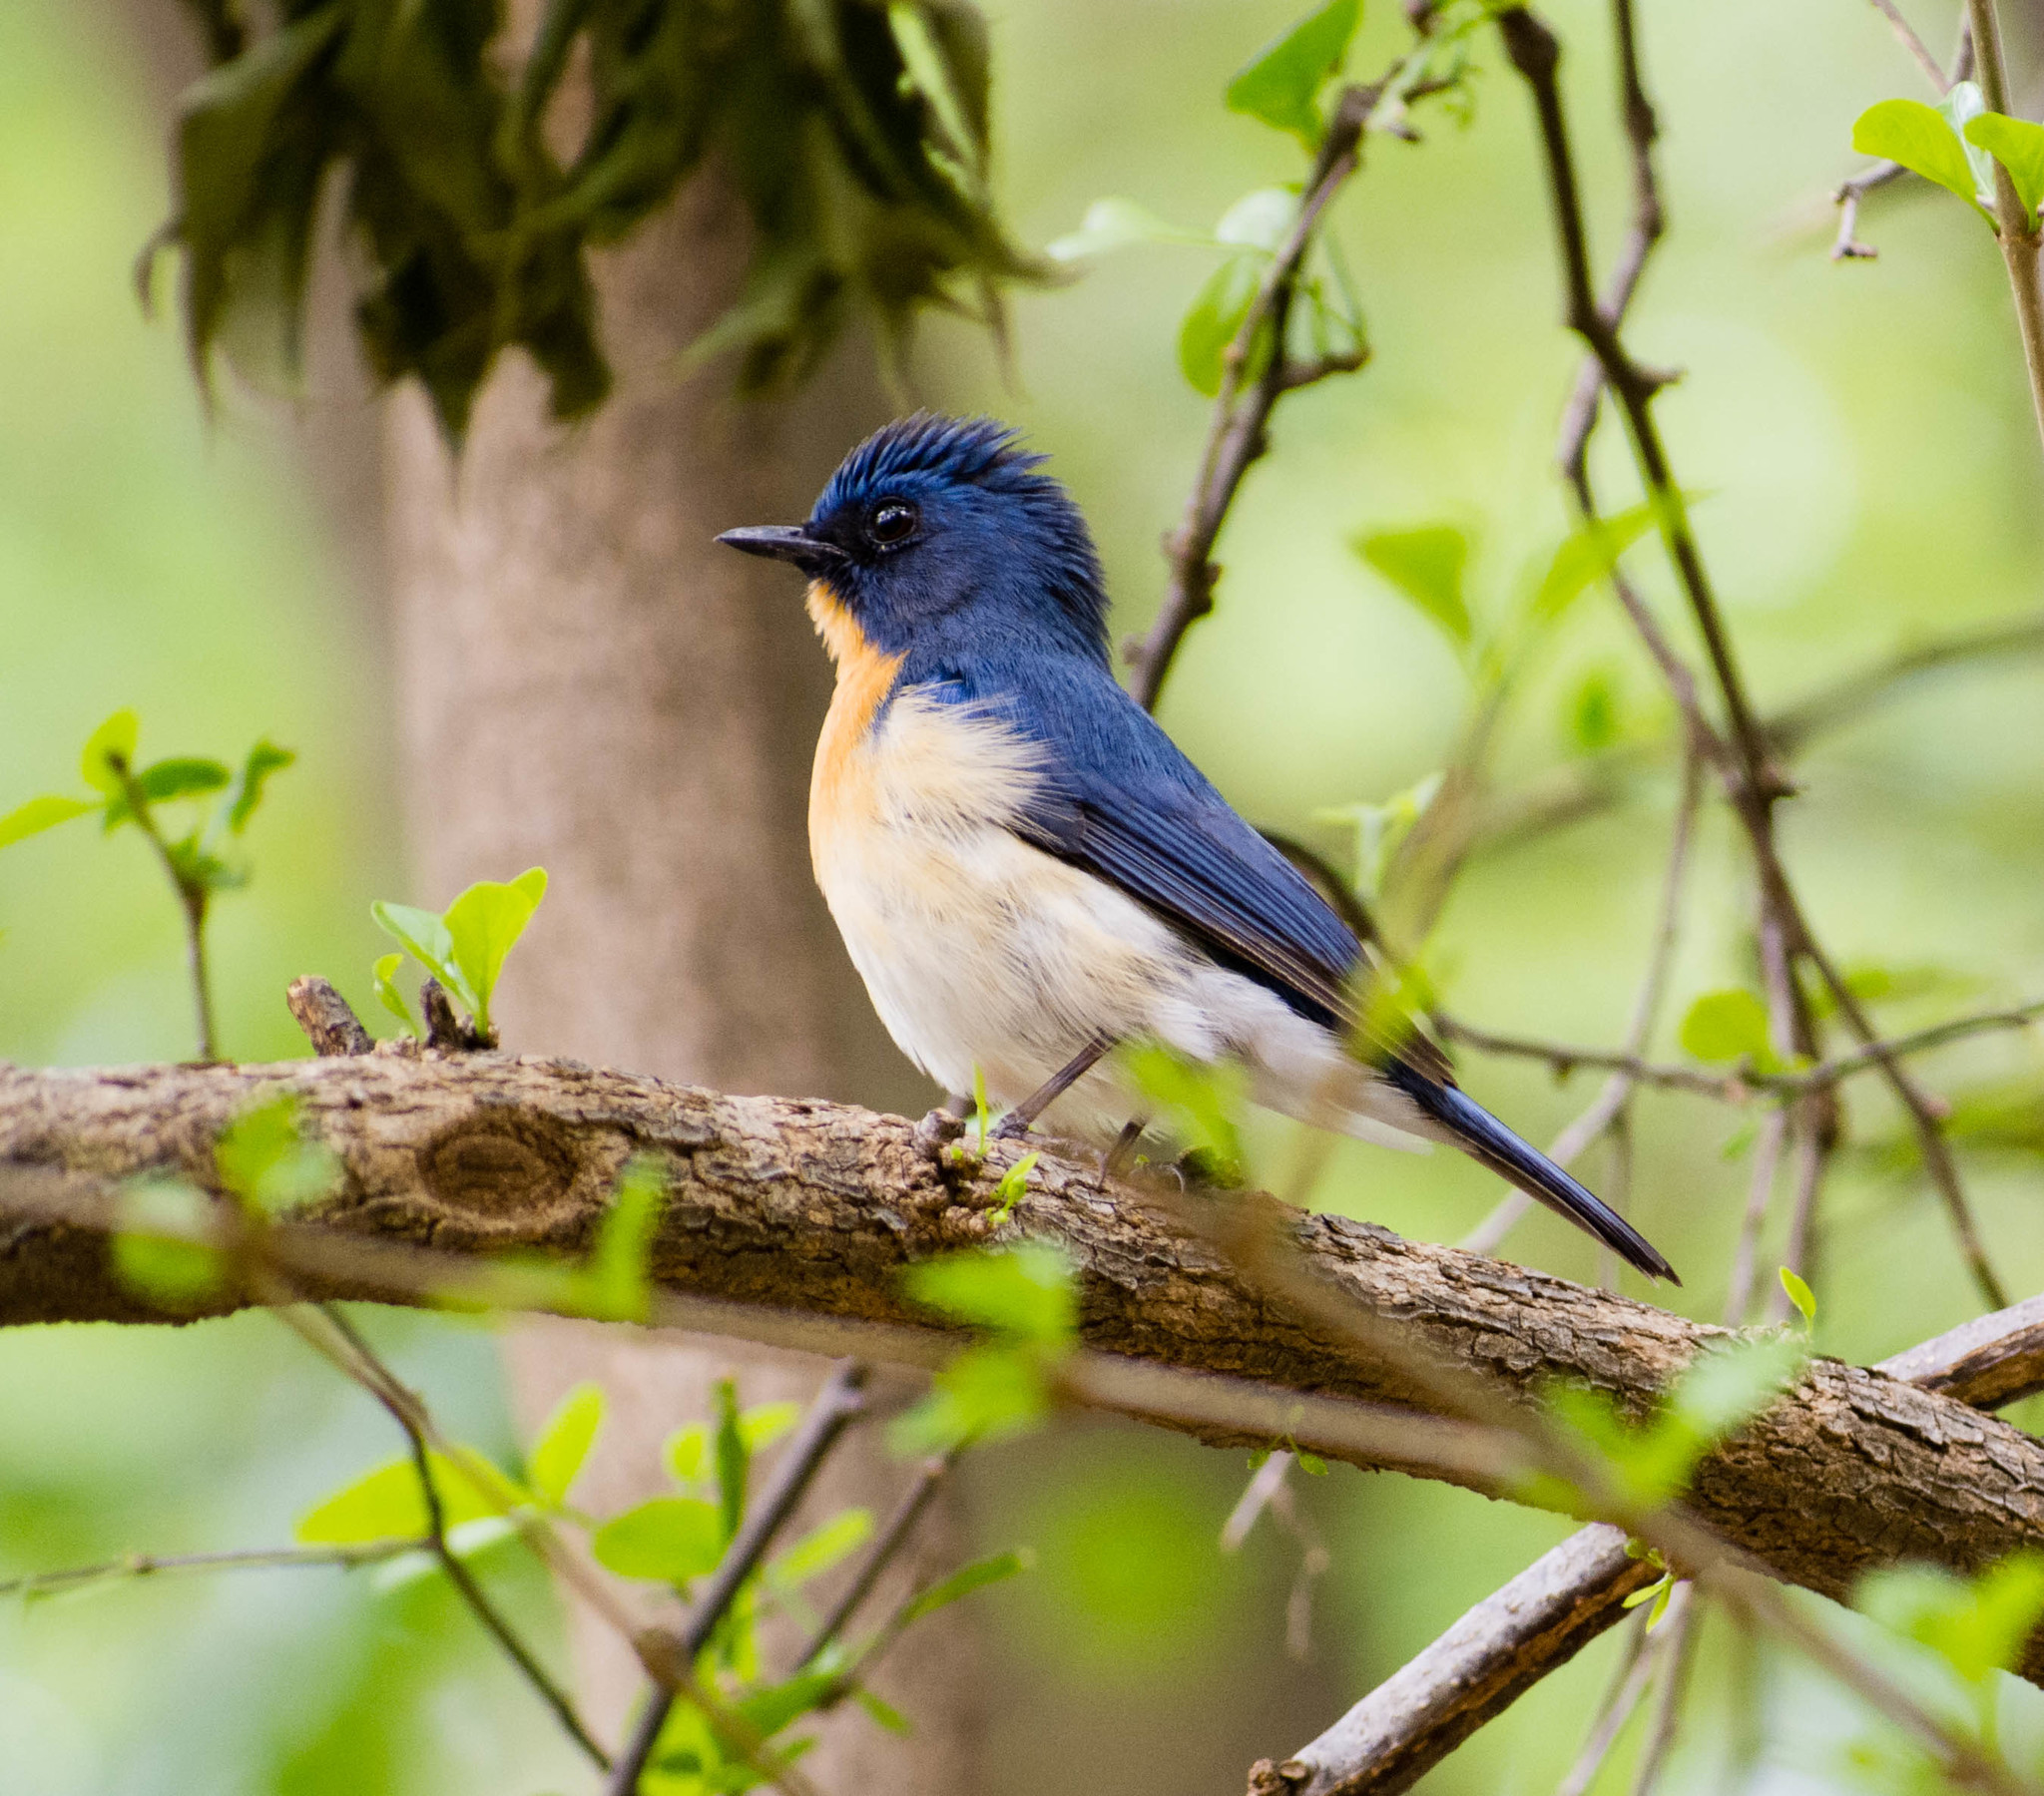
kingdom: Animalia
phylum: Chordata
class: Aves
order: Passeriformes
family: Muscicapidae
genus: Cyornis
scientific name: Cyornis tickelliae
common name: Tickell's blue flycatcher
